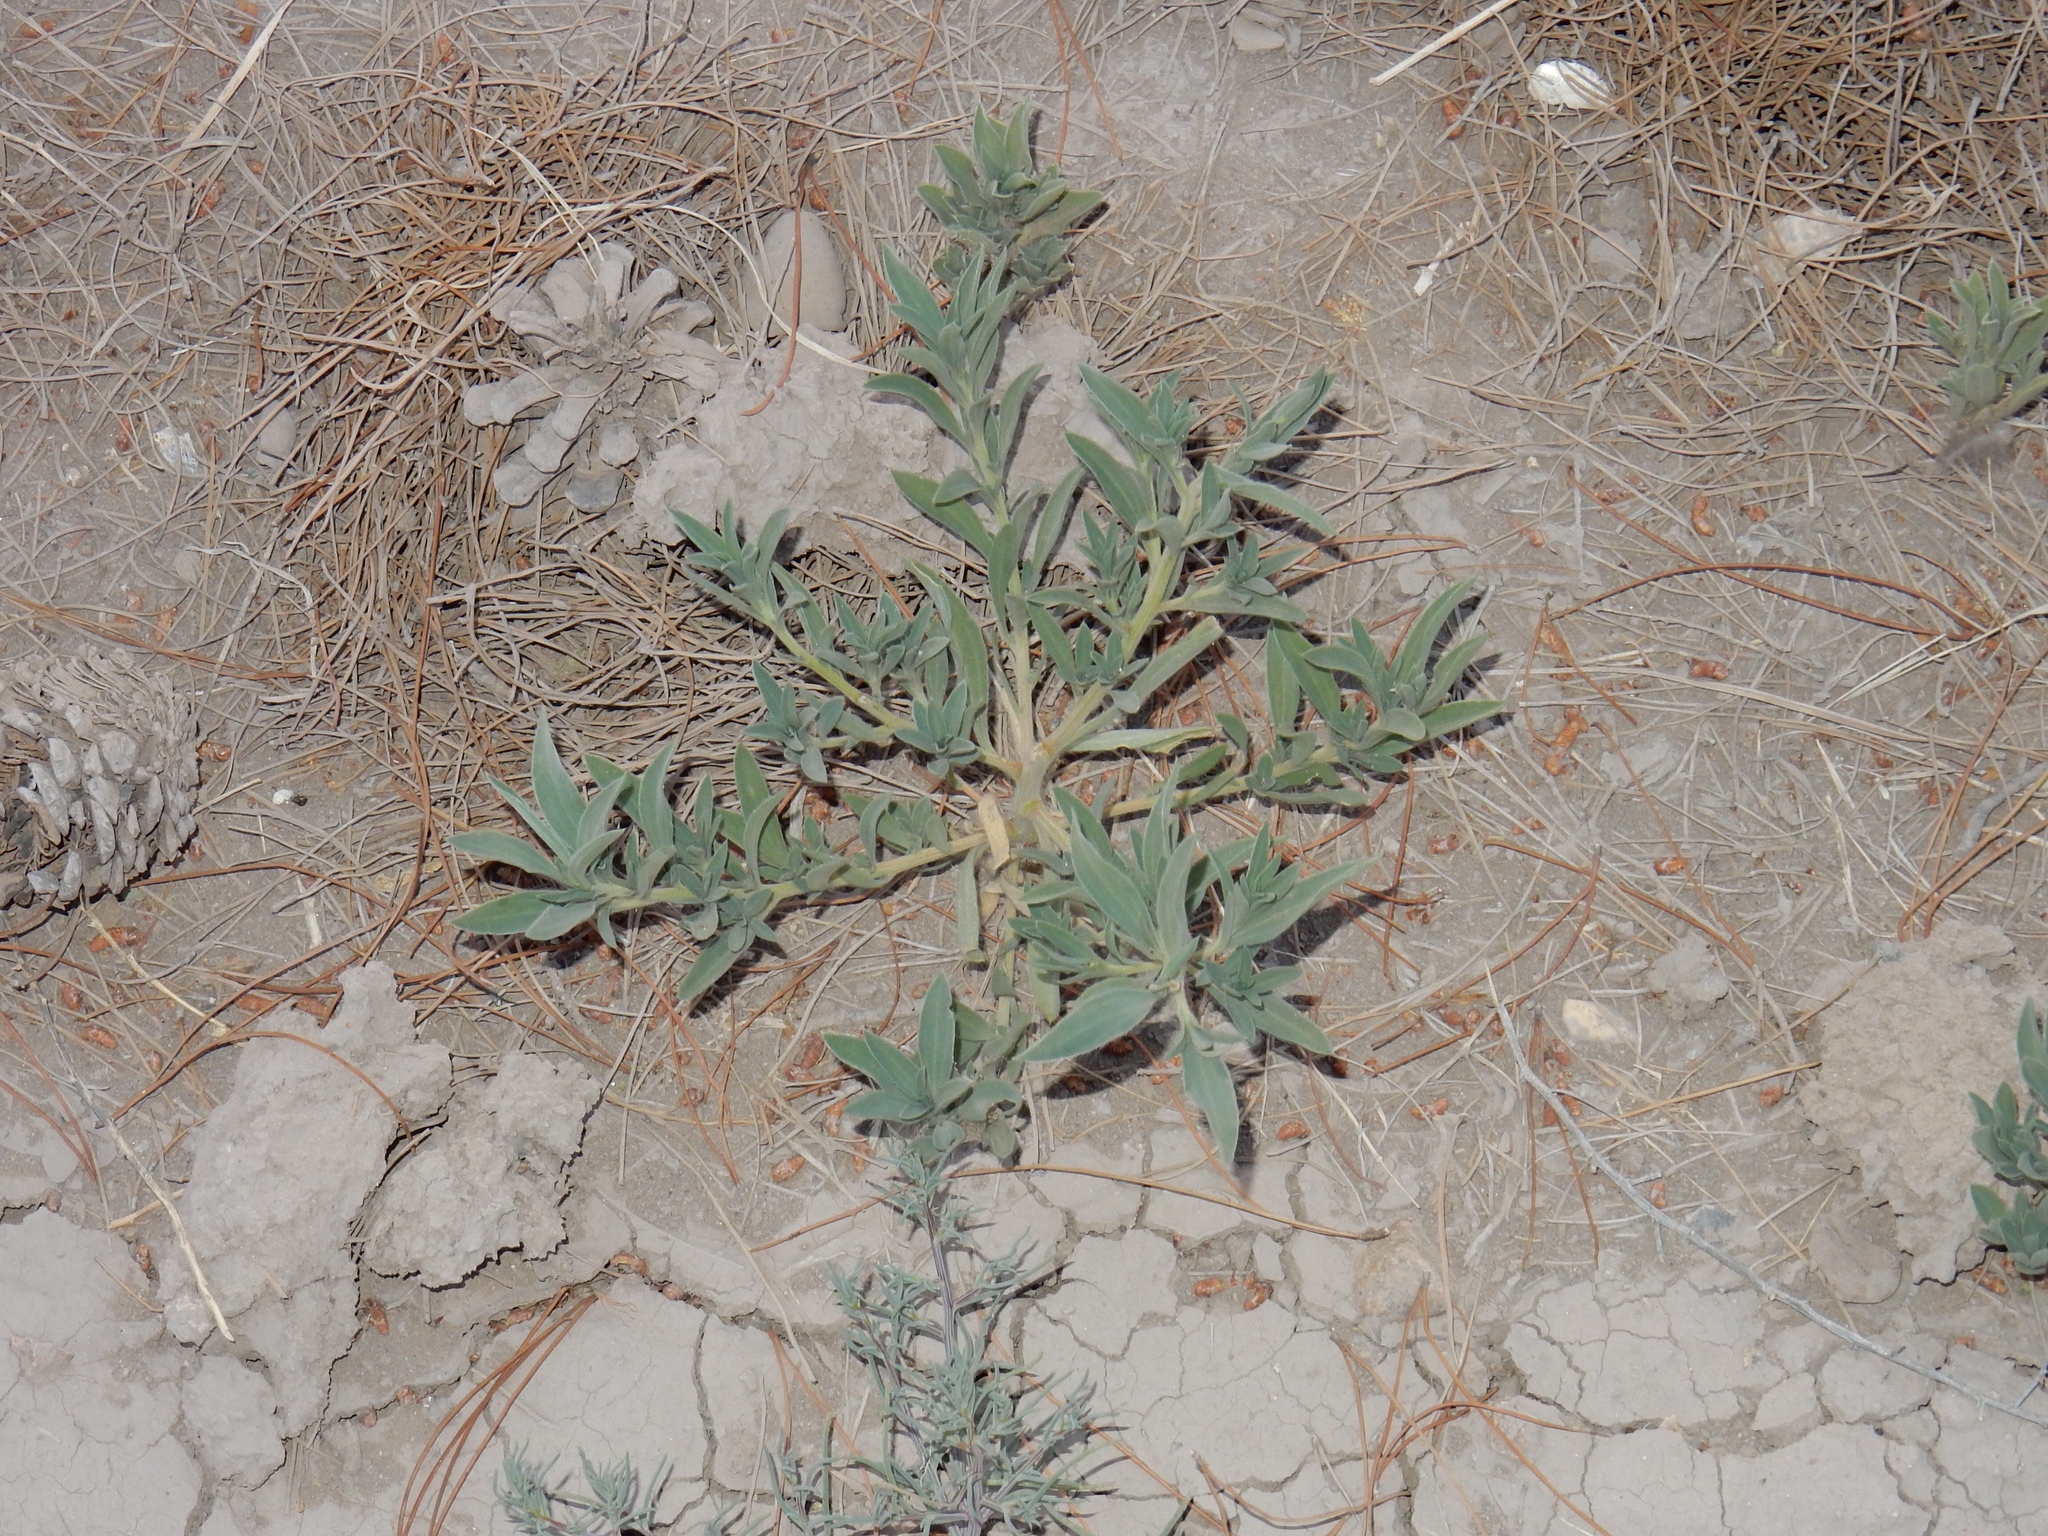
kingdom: Plantae
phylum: Tracheophyta
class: Magnoliopsida
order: Caryophyllales
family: Amaranthaceae
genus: Bassia
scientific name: Bassia scoparia
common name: Belvedere
